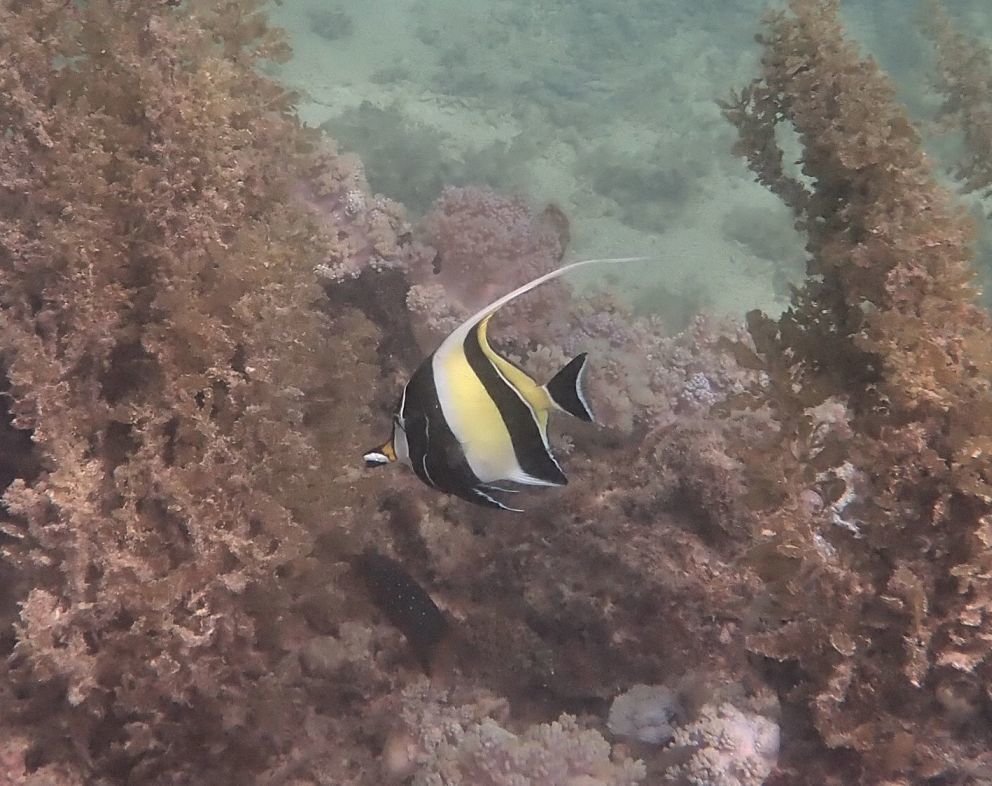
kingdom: Animalia
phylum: Chordata
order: Perciformes
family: Zanclidae
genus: Zanclus
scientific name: Zanclus cornutus
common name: Moorish idol
